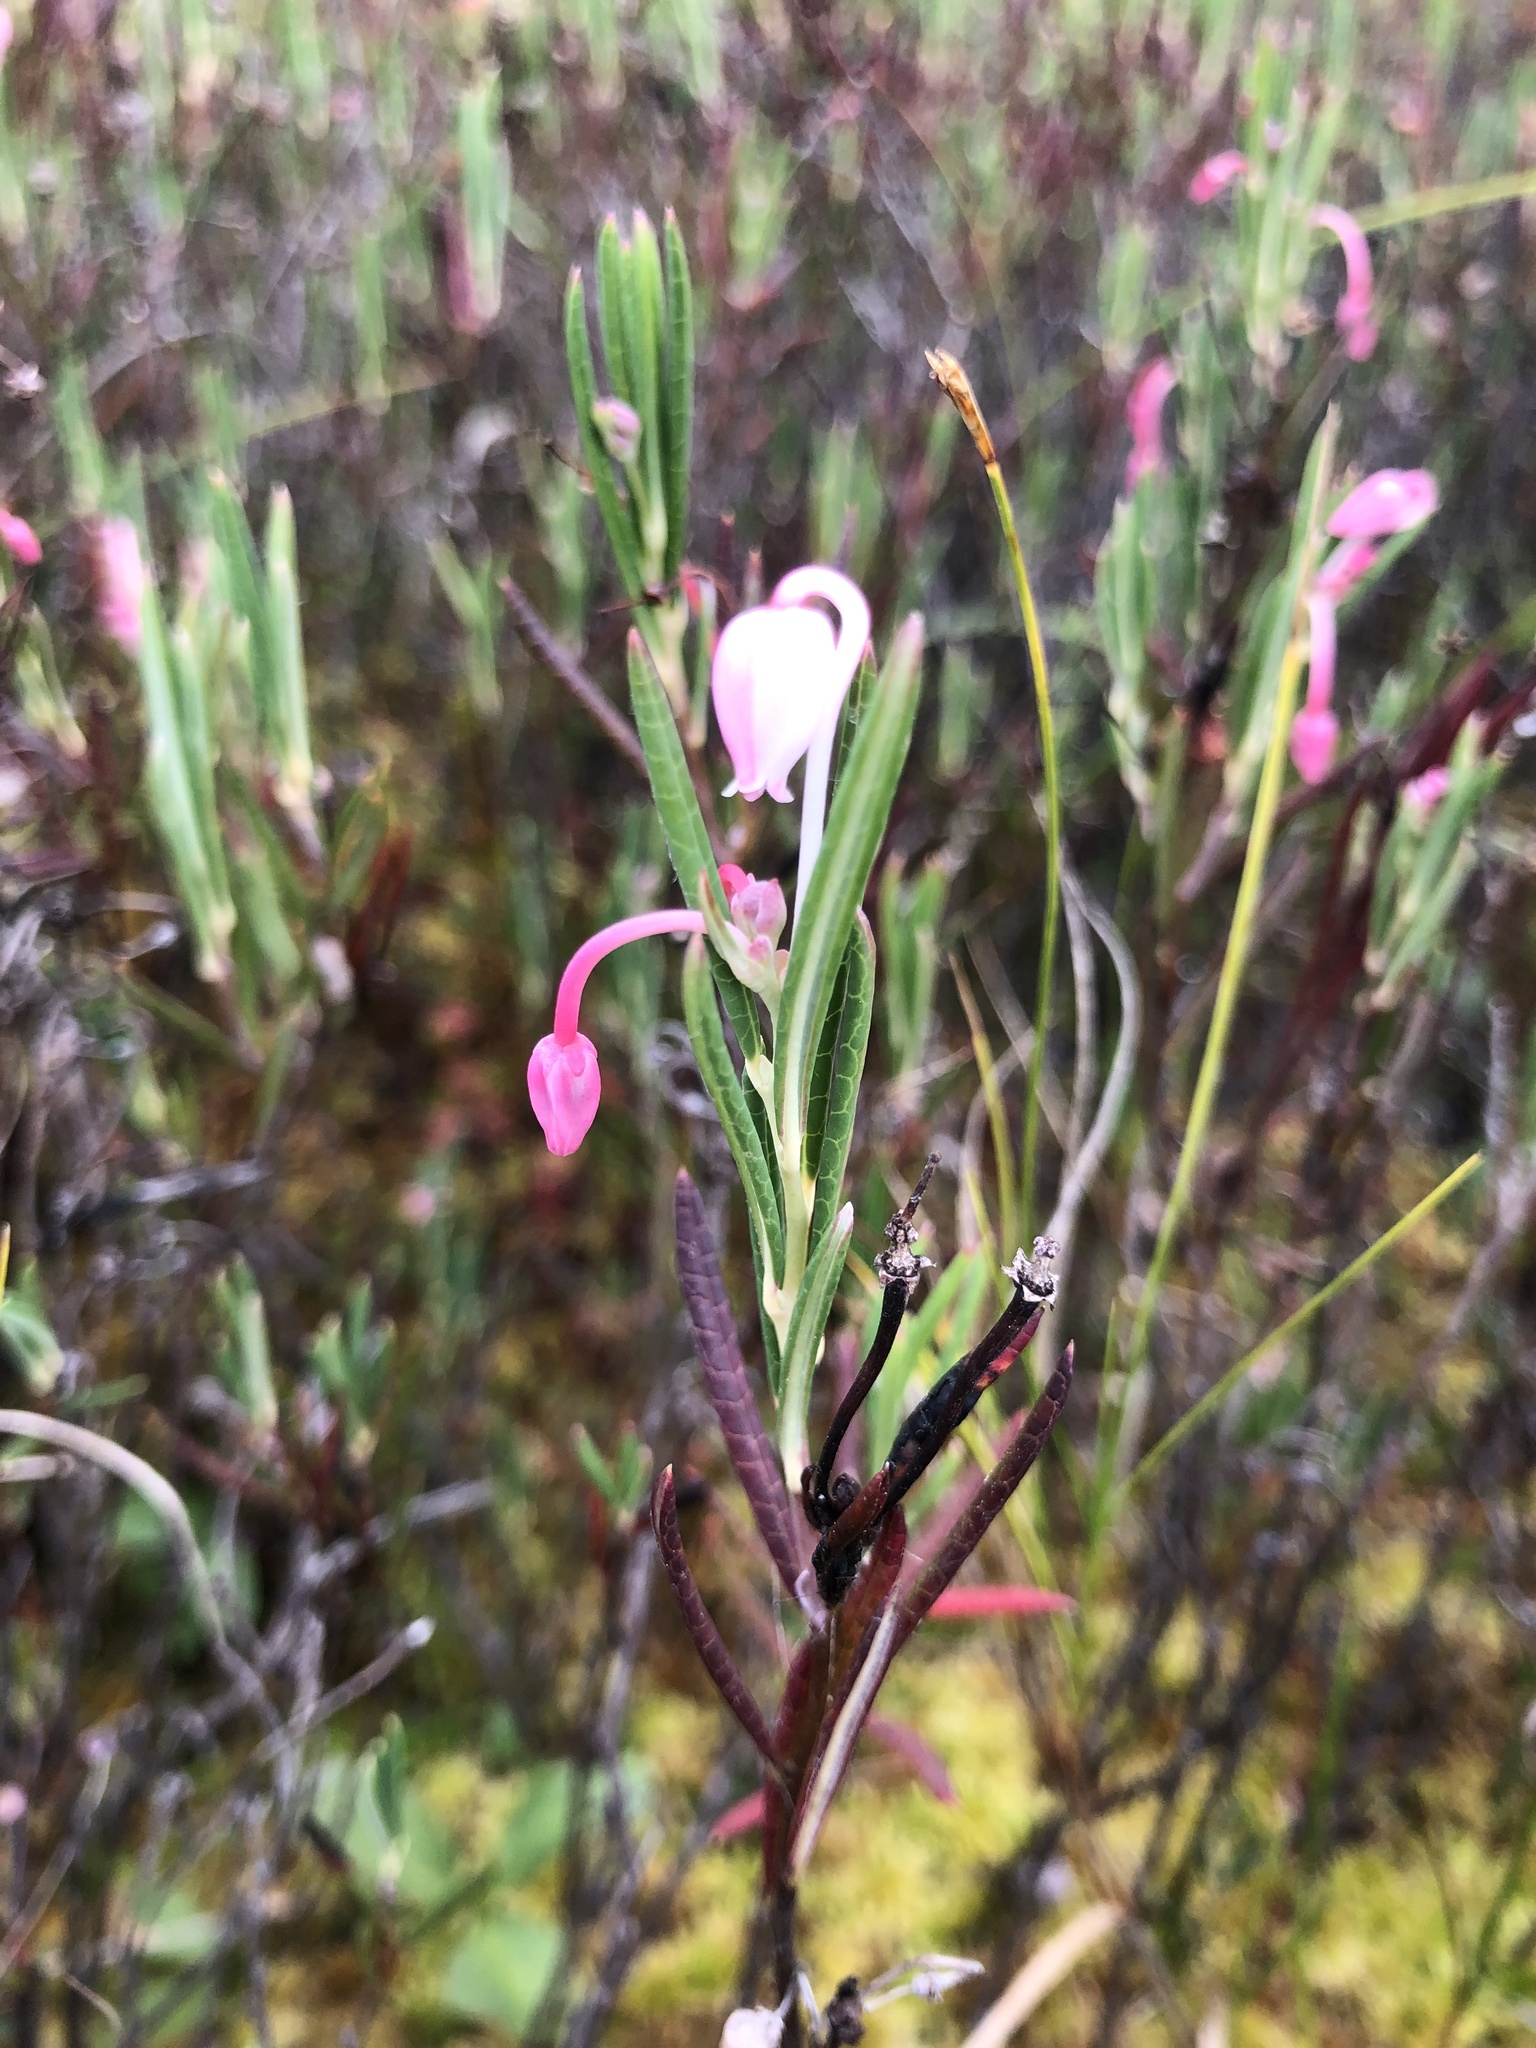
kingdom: Plantae
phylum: Tracheophyta
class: Magnoliopsida
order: Ericales
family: Ericaceae
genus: Andromeda
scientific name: Andromeda polifolia
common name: Bog-rosemary
